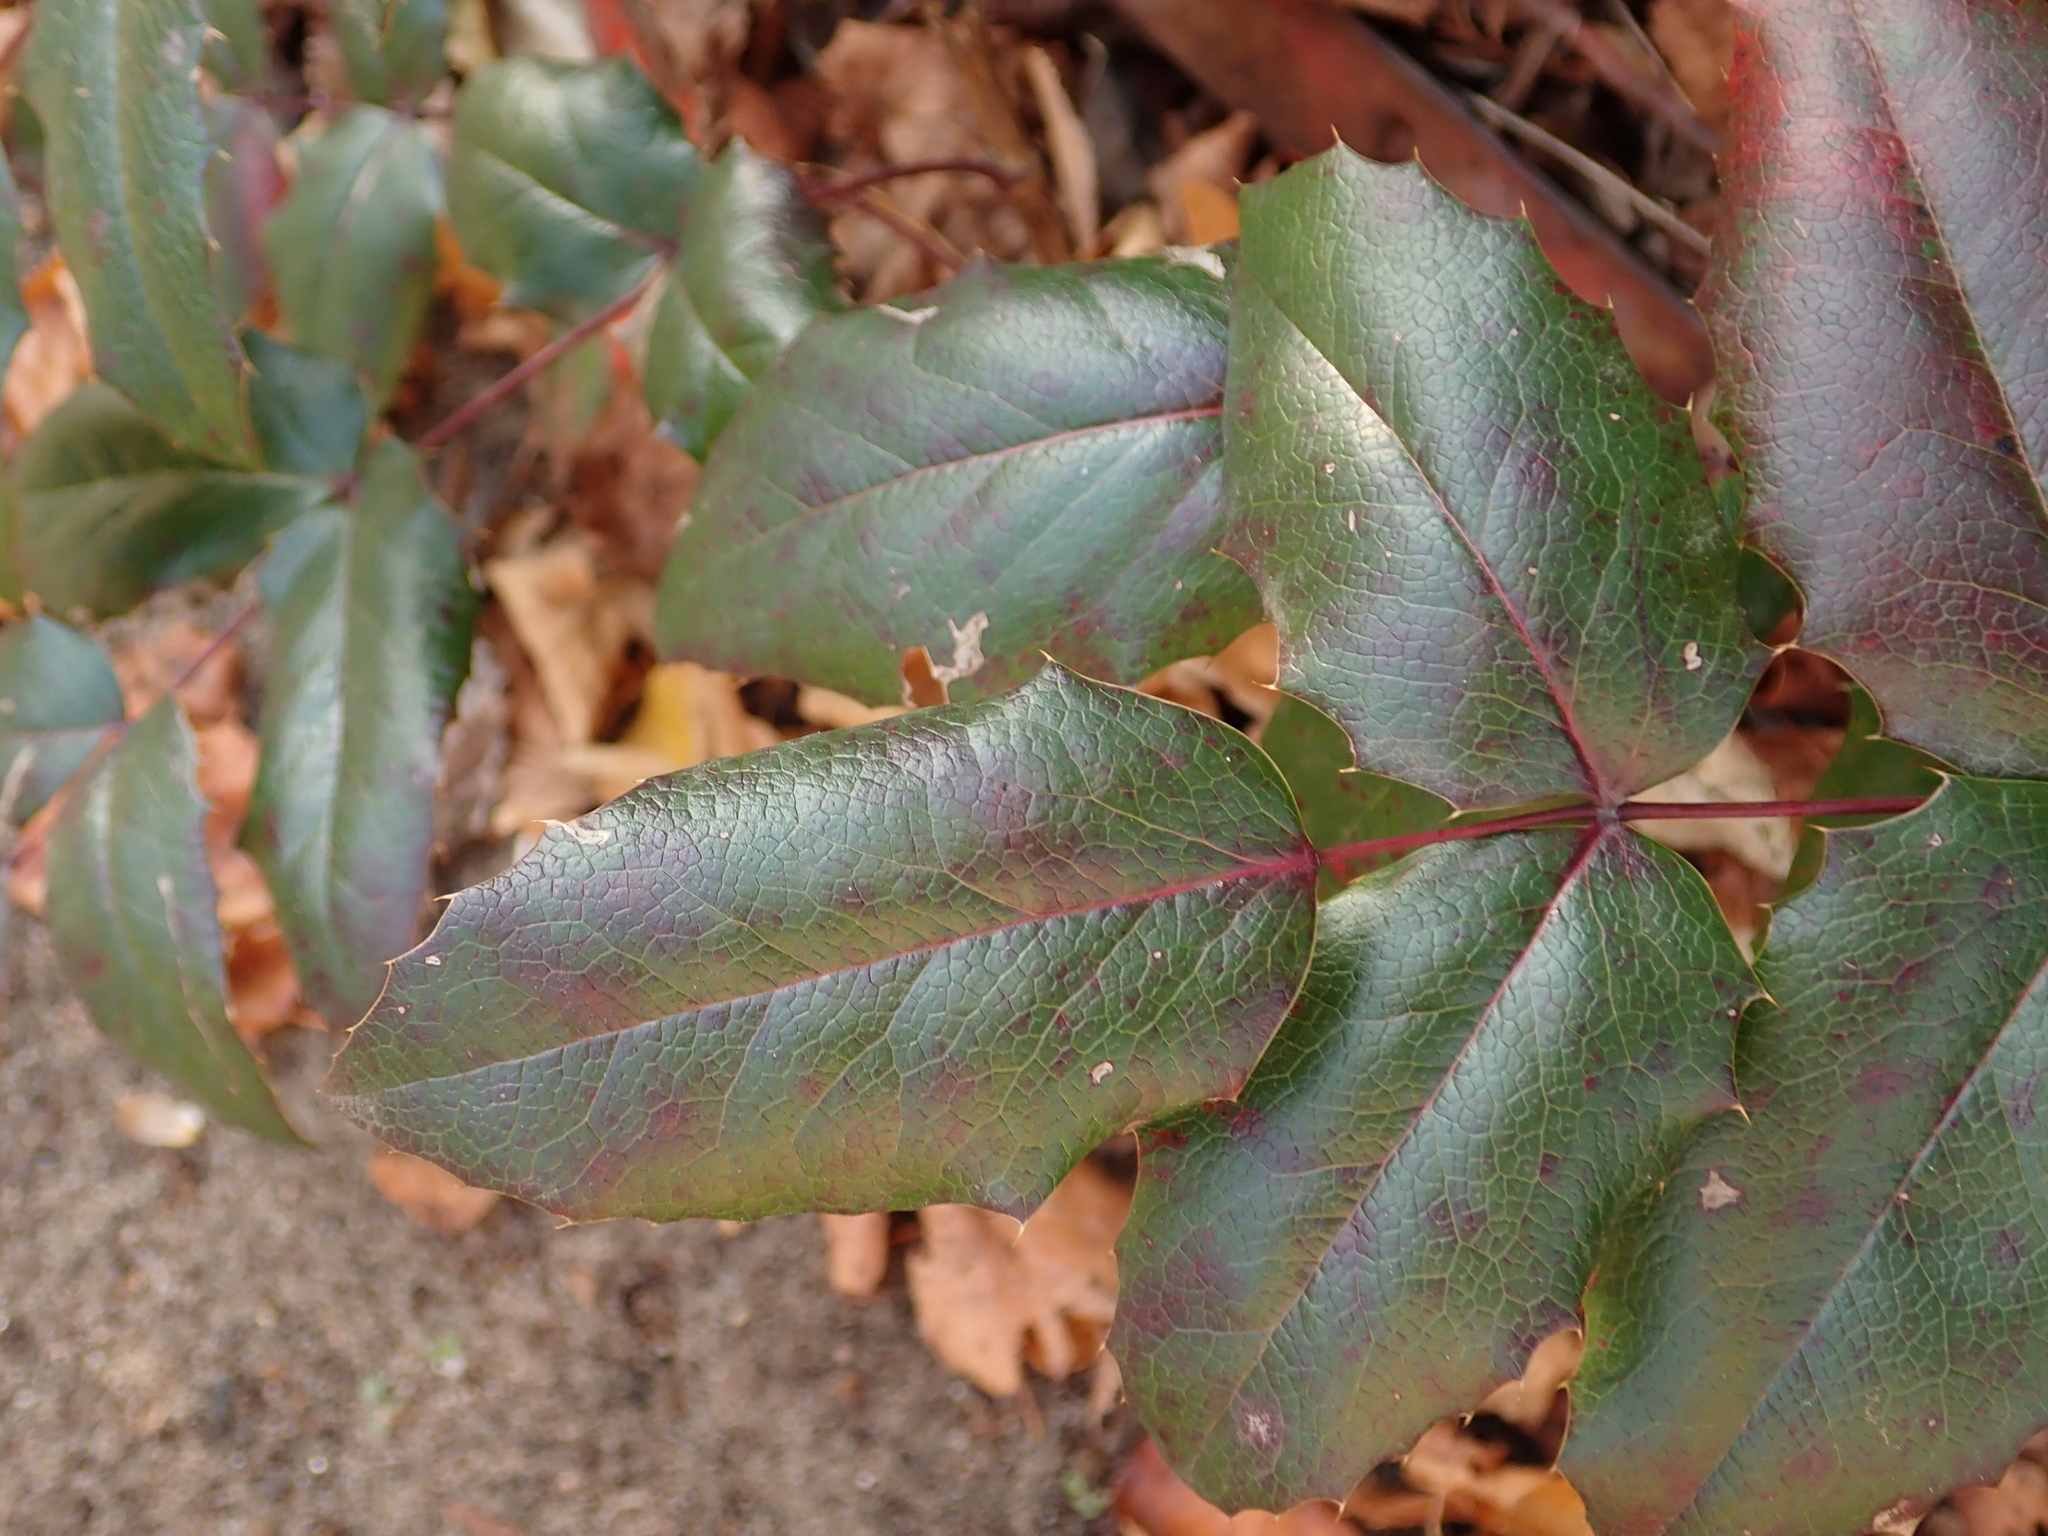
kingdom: Plantae
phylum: Tracheophyta
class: Magnoliopsida
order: Ranunculales
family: Berberidaceae
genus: Mahonia
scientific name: Mahonia aquifolium
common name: Oregon-grape
